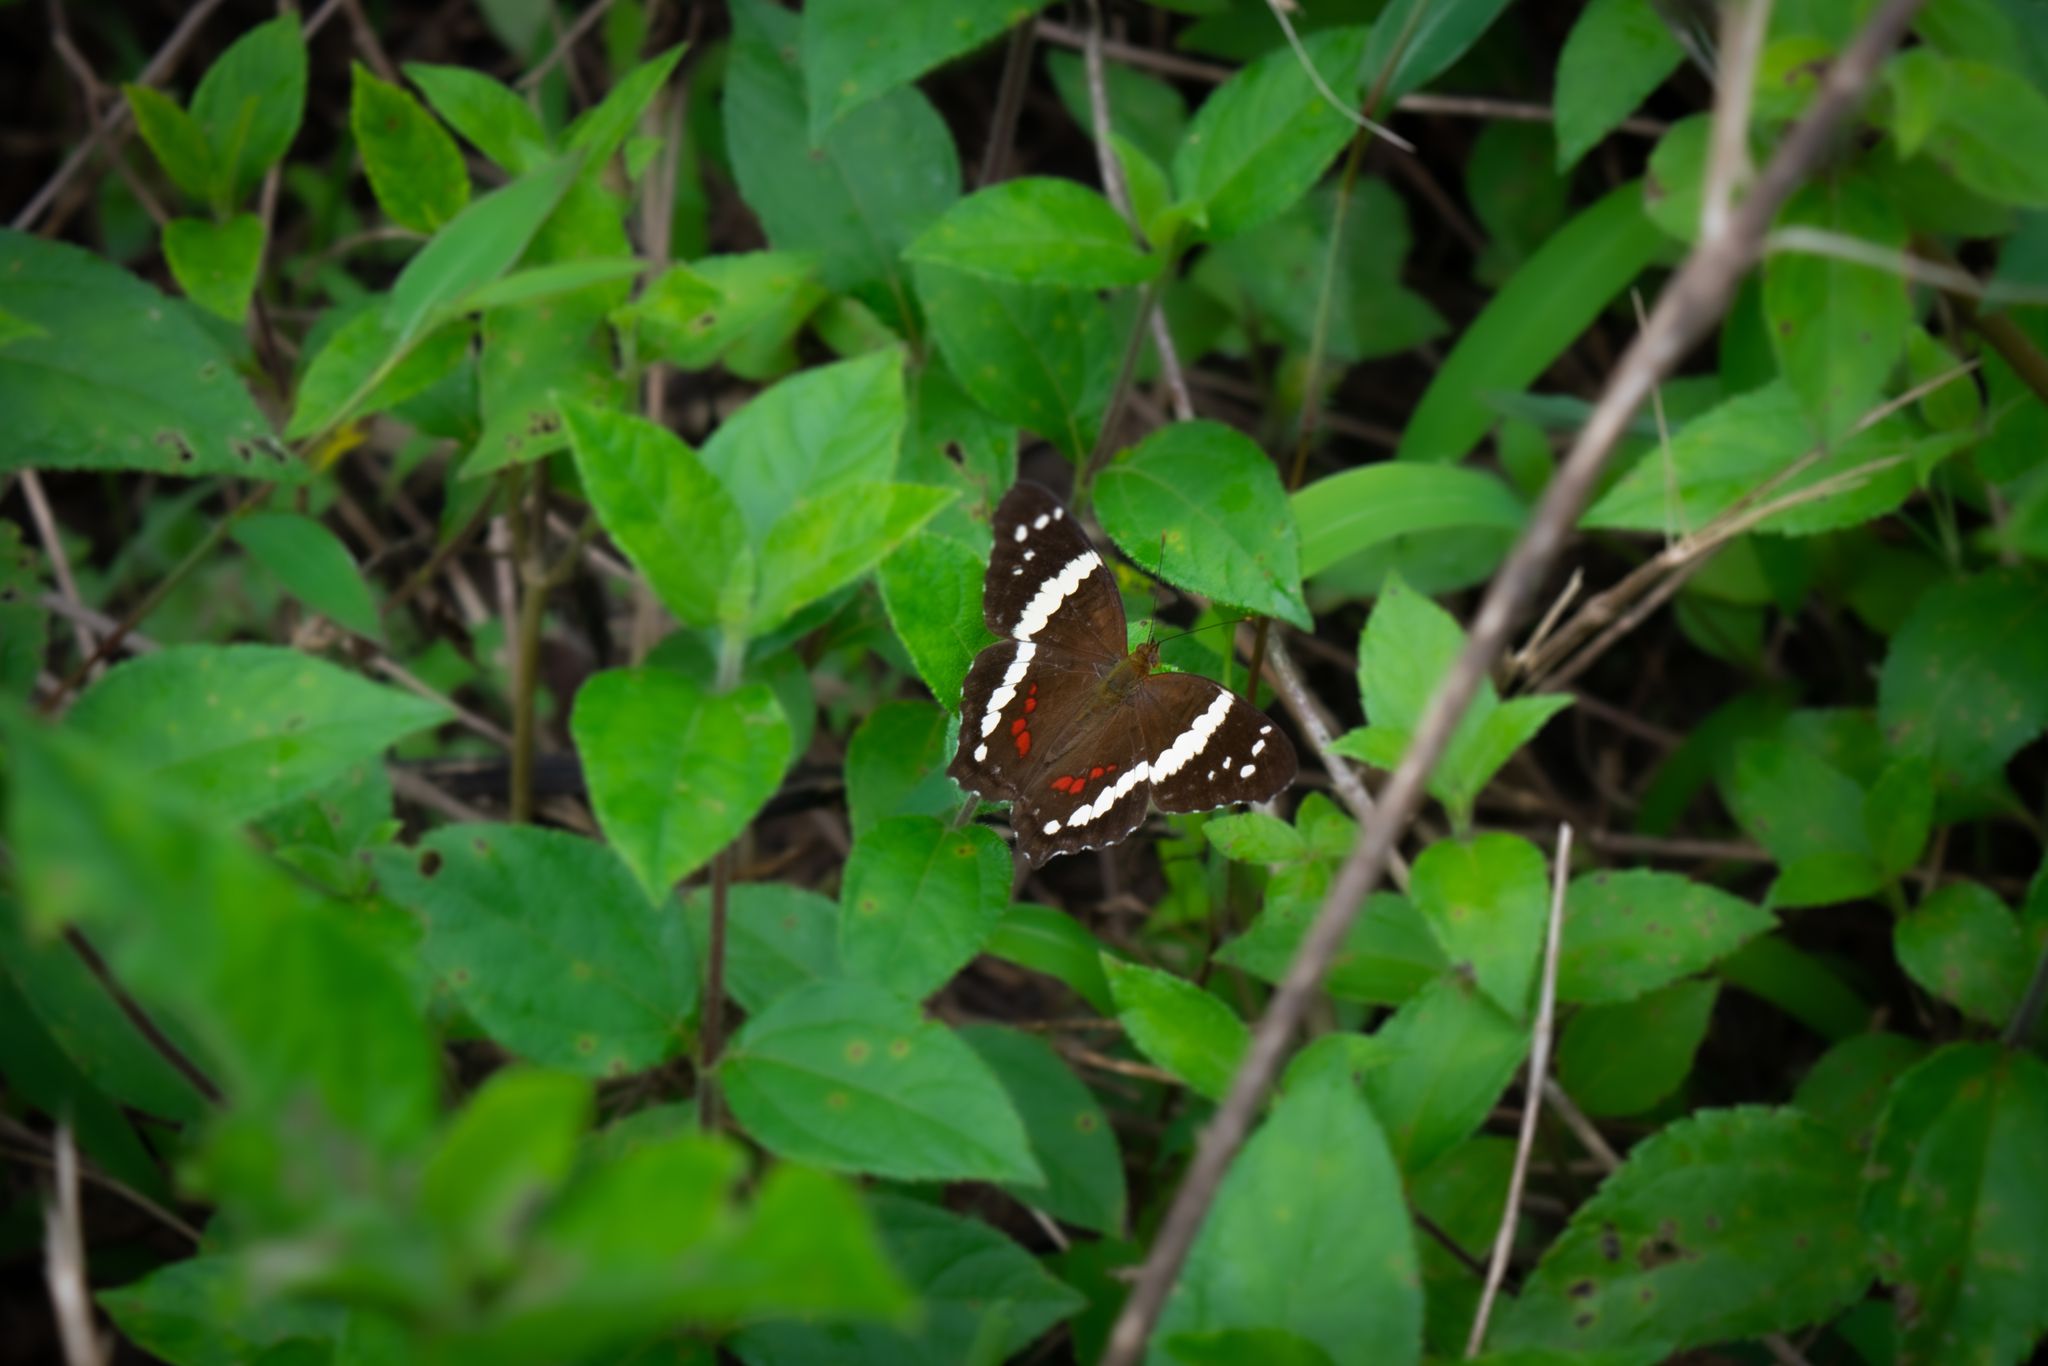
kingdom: Animalia
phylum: Arthropoda
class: Insecta
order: Lepidoptera
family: Nymphalidae
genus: Anartia
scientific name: Anartia fatima
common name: Banded peacock
